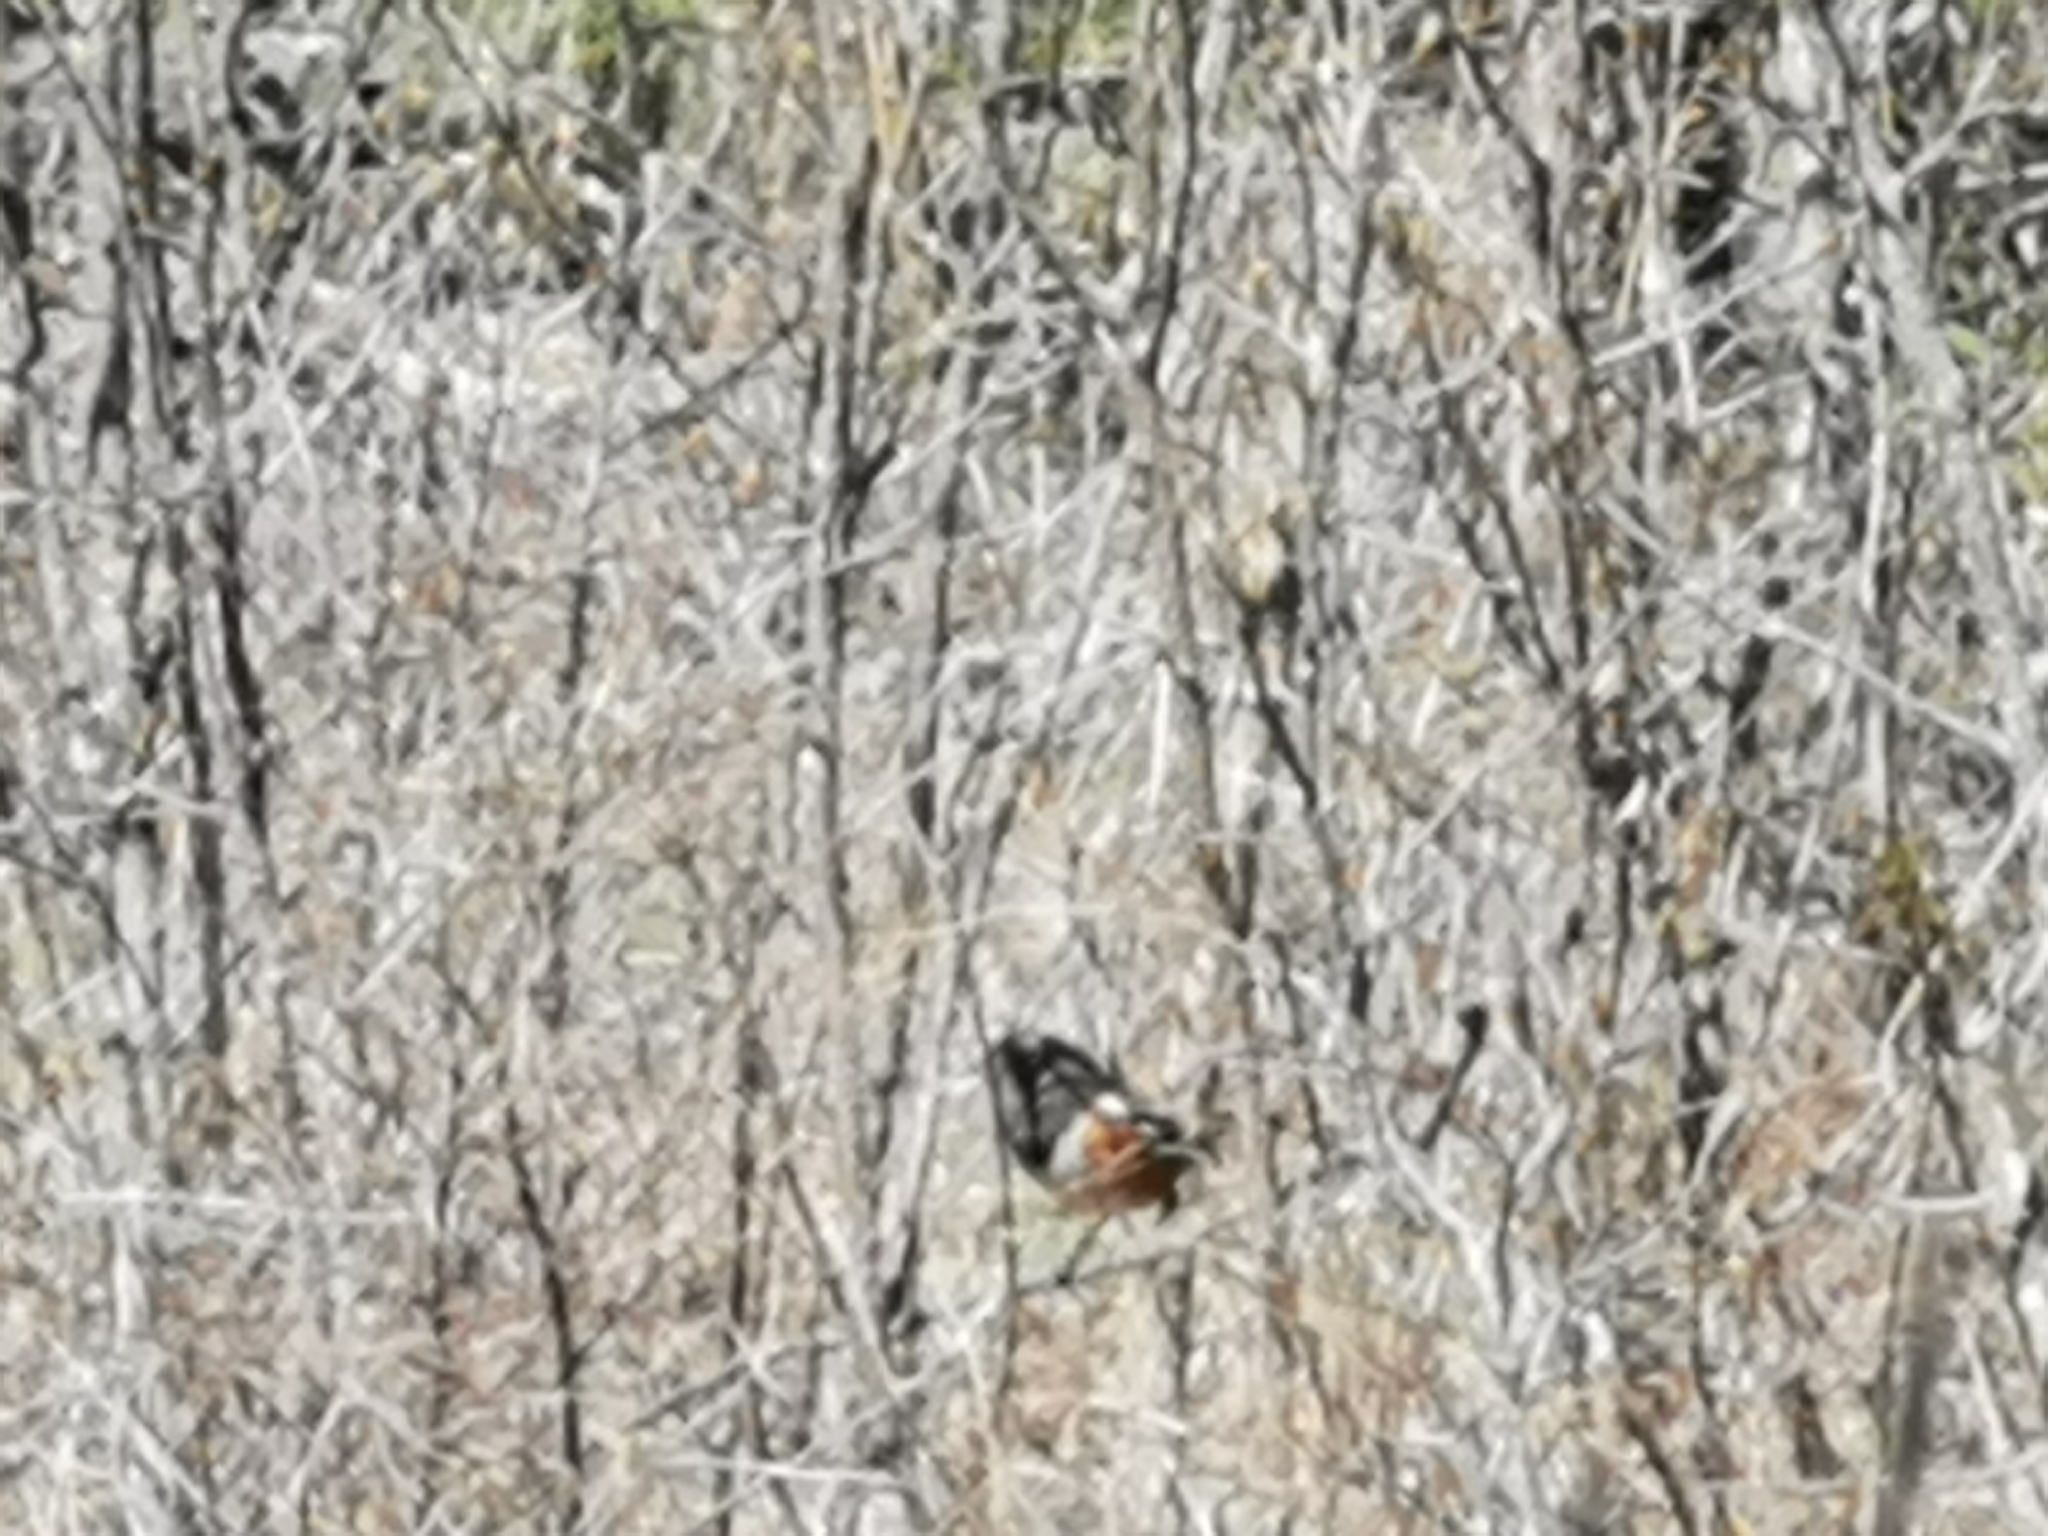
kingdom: Animalia
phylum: Chordata
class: Aves
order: Passeriformes
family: Passerellidae
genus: Pipilo
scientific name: Pipilo maculatus
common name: Spotted towhee
